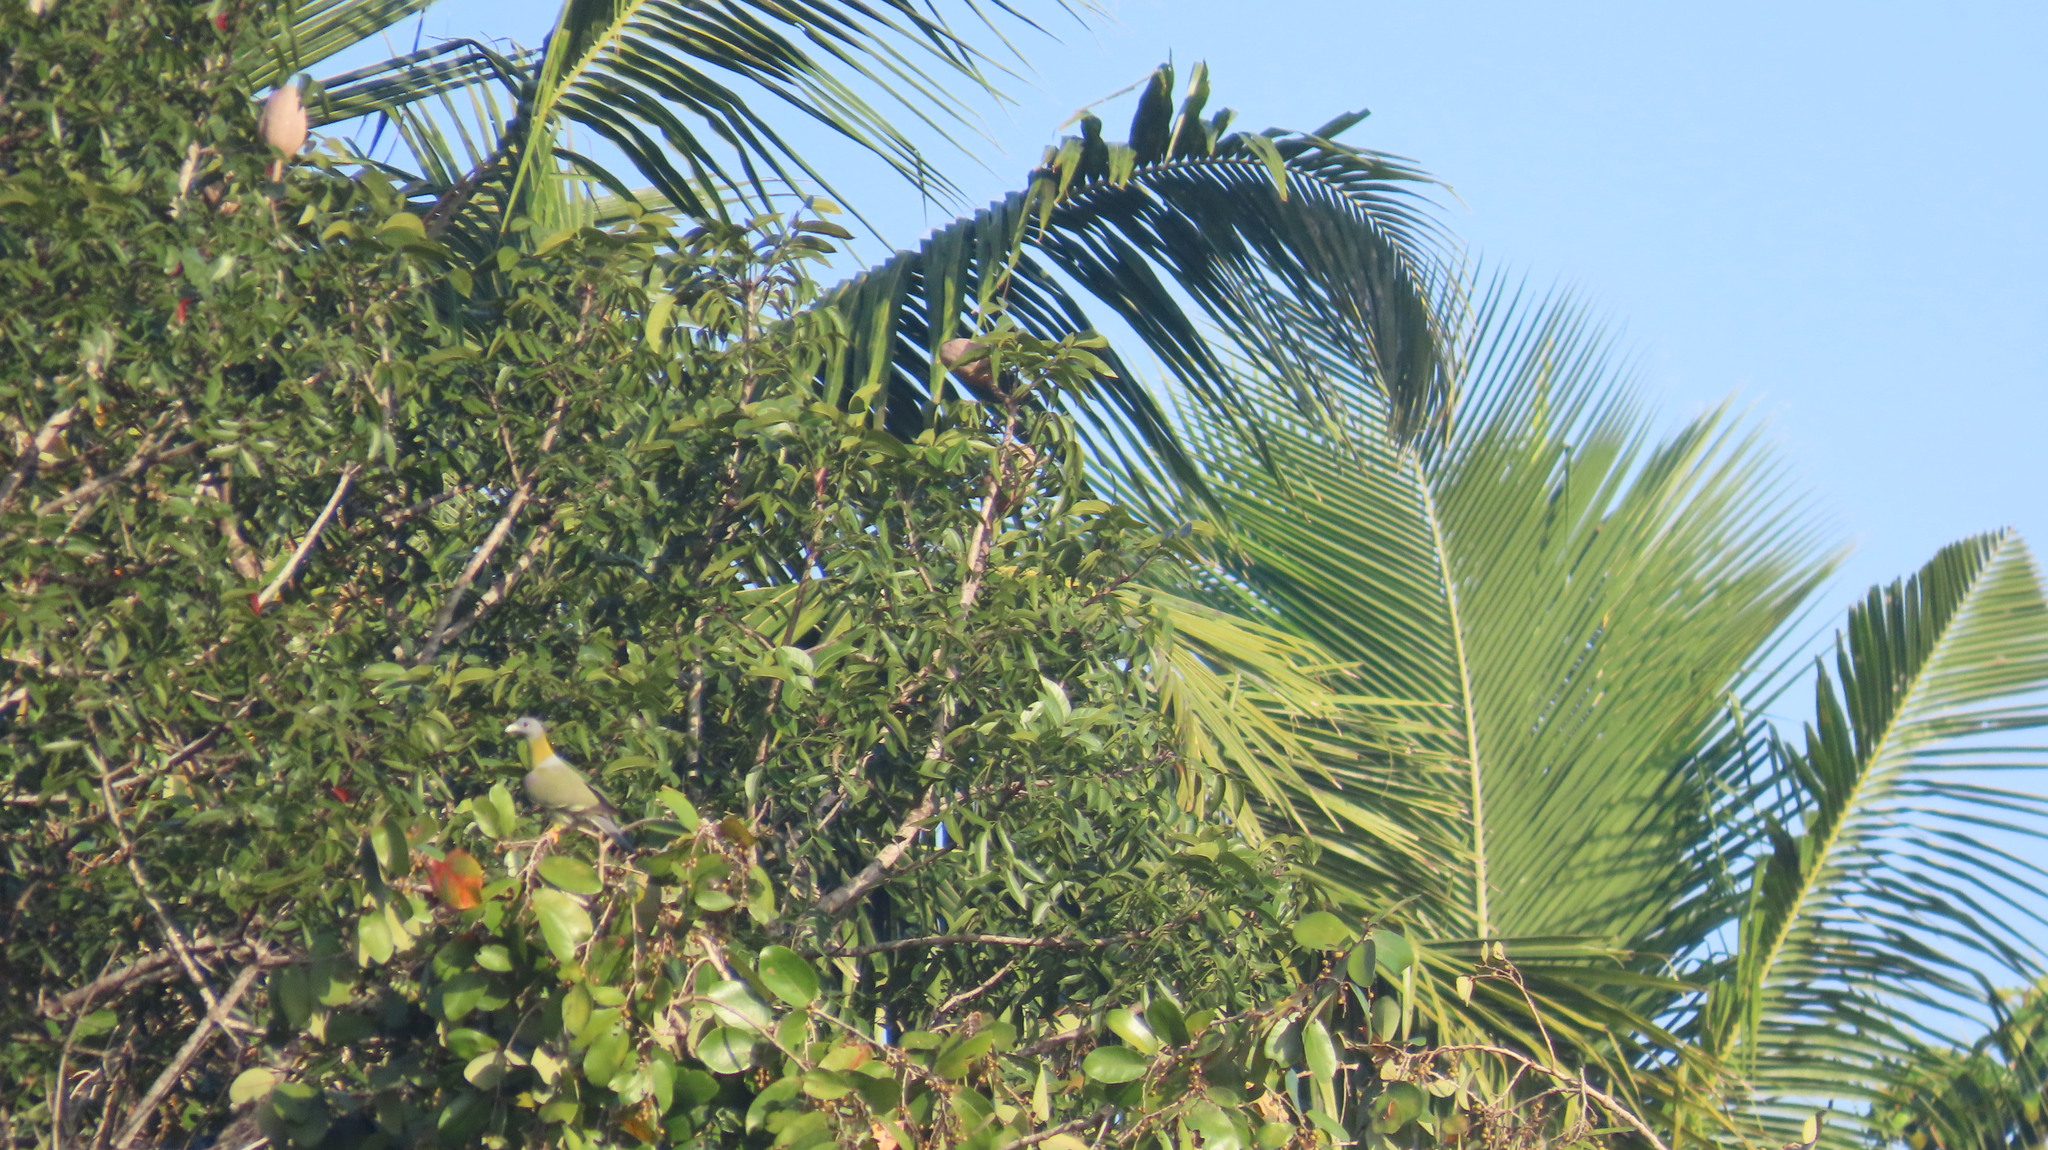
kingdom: Animalia
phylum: Chordata
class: Aves
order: Columbiformes
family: Columbidae
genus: Treron
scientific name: Treron phoenicopterus
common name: Yellow-footed green pigeon
